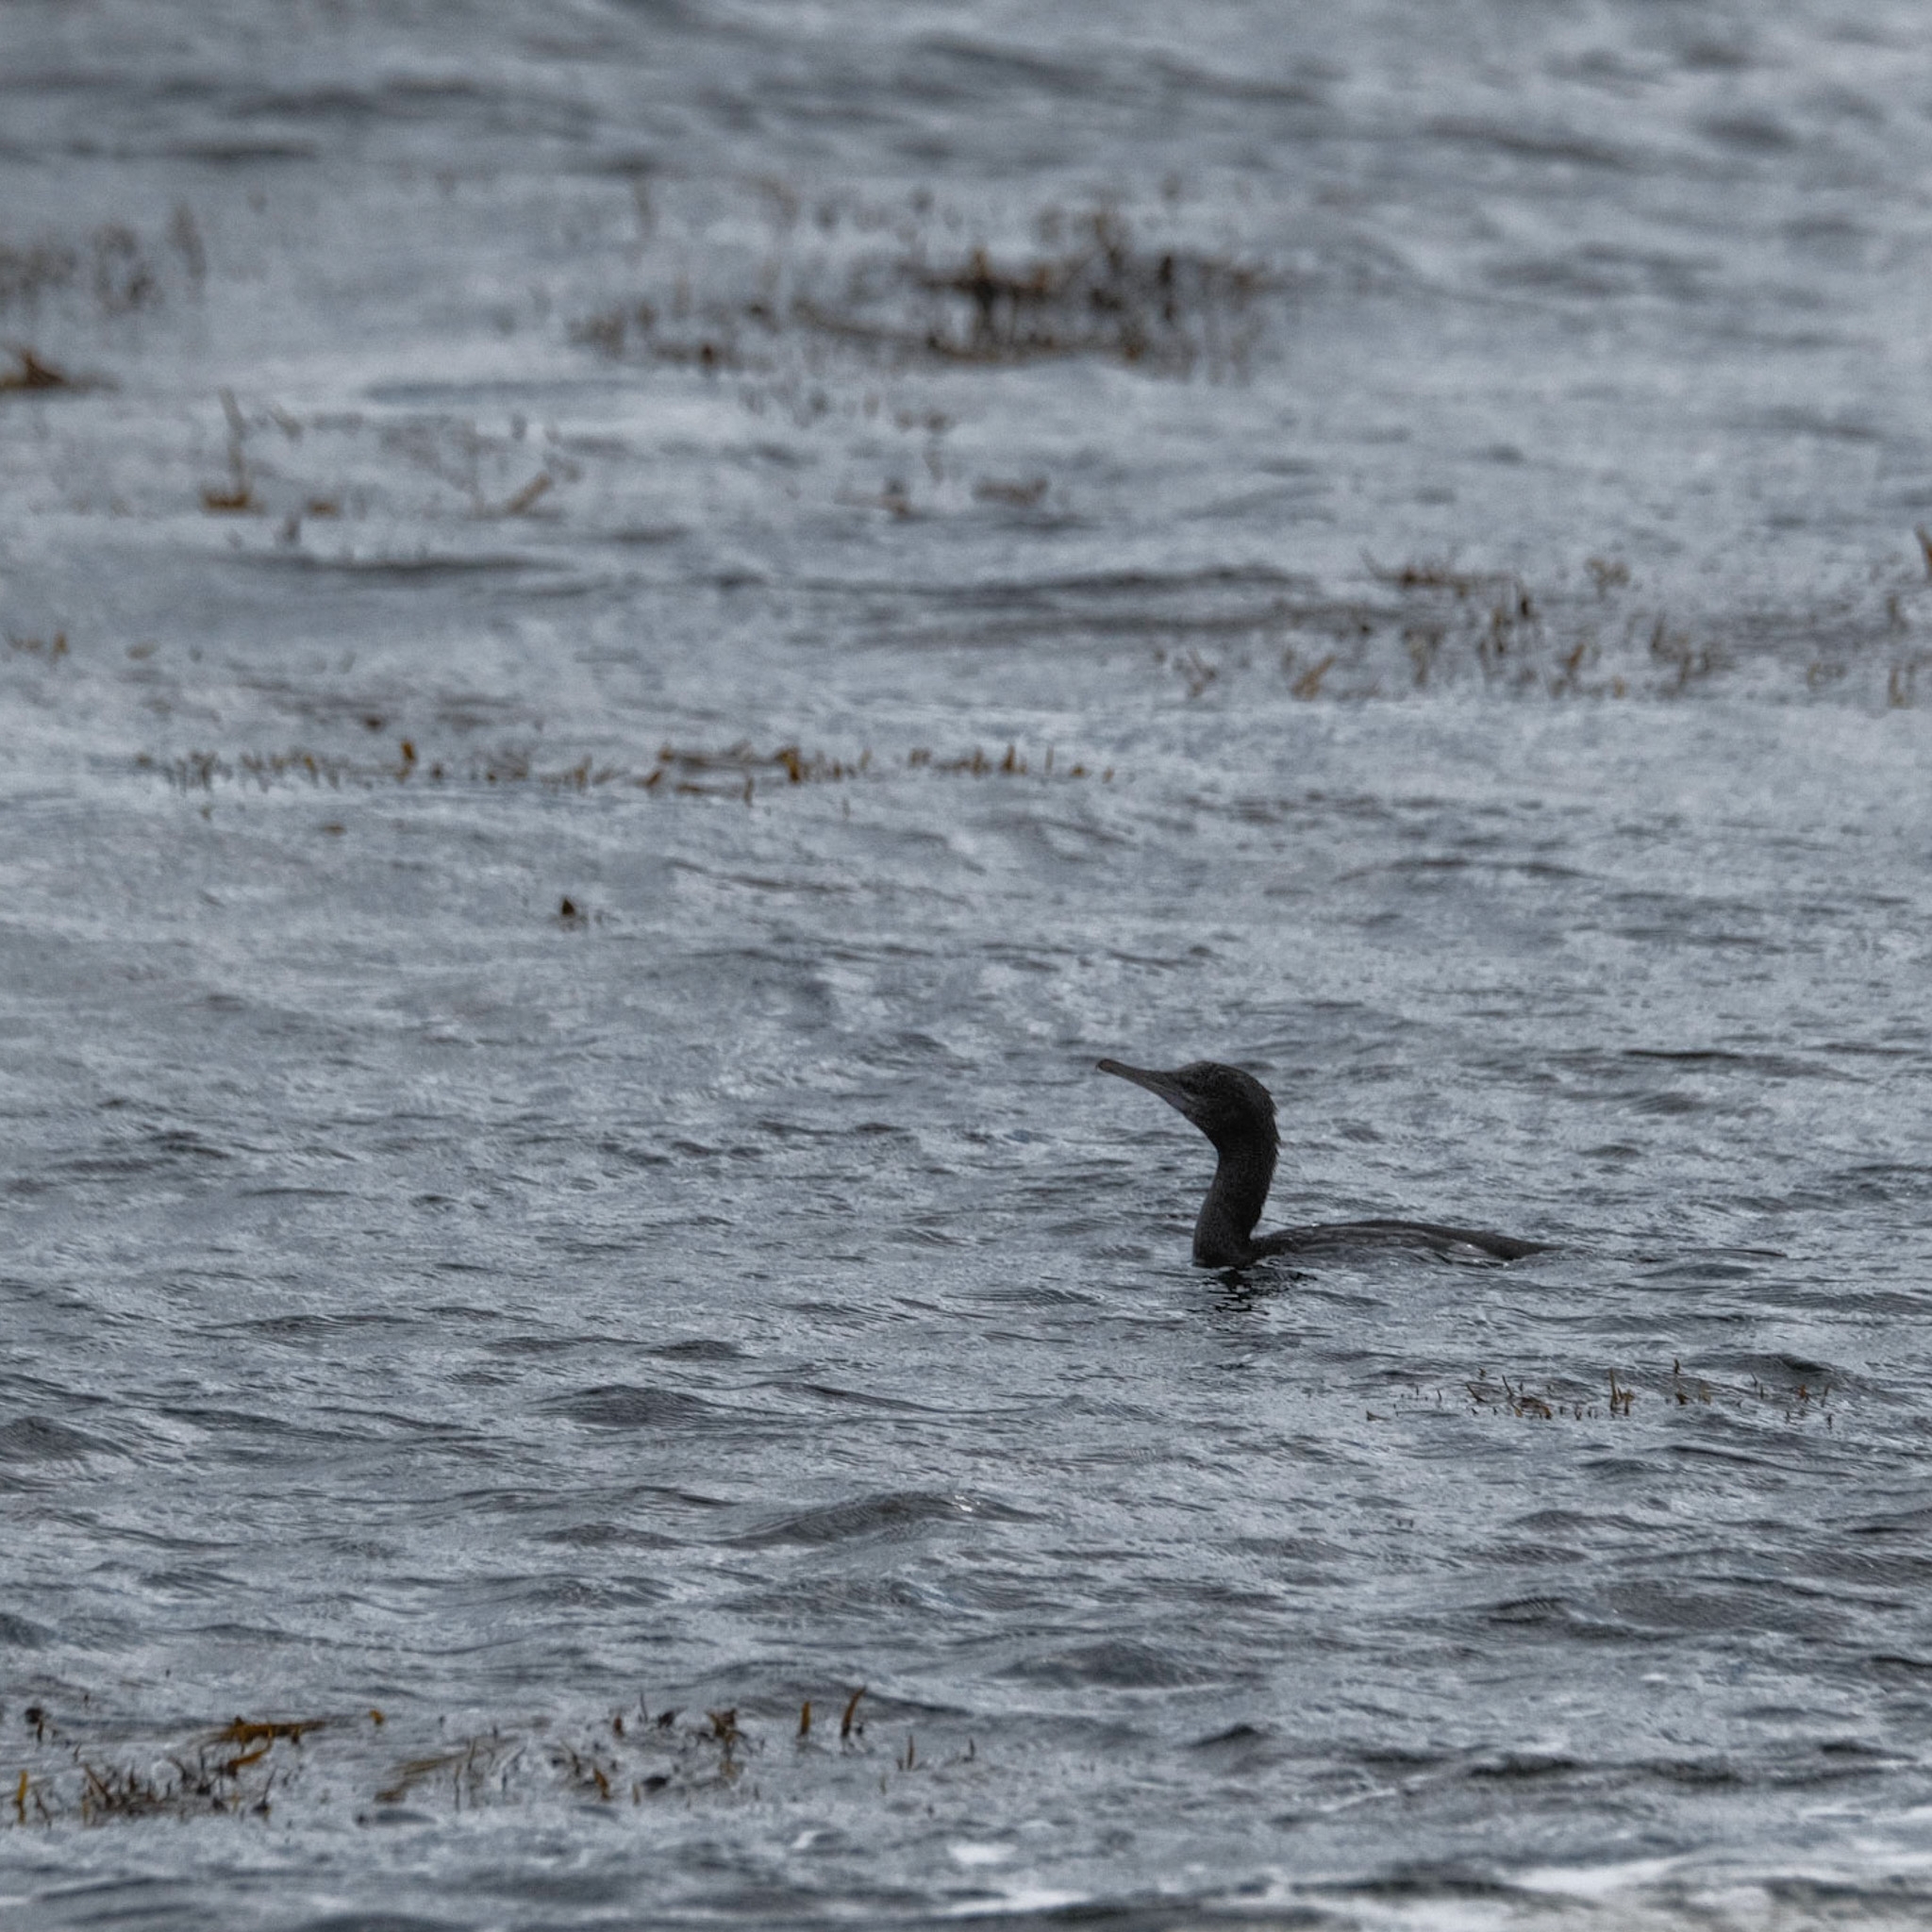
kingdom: Animalia
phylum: Chordata
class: Aves
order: Suliformes
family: Phalacrocoracidae
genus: Phalacrocorax
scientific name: Phalacrocorax sulcirostris
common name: Little black cormorant
